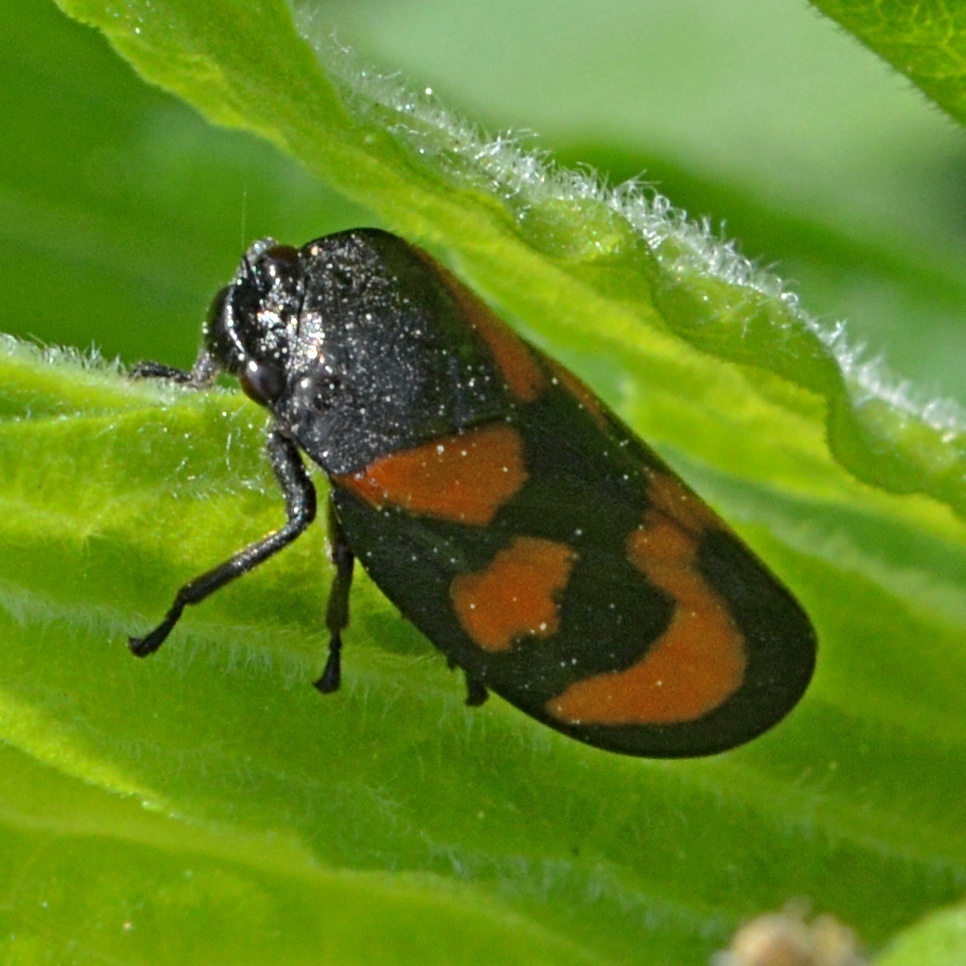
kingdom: Animalia
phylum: Arthropoda
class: Insecta
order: Hemiptera
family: Cercopidae
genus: Cercopis
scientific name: Cercopis vulnerata
